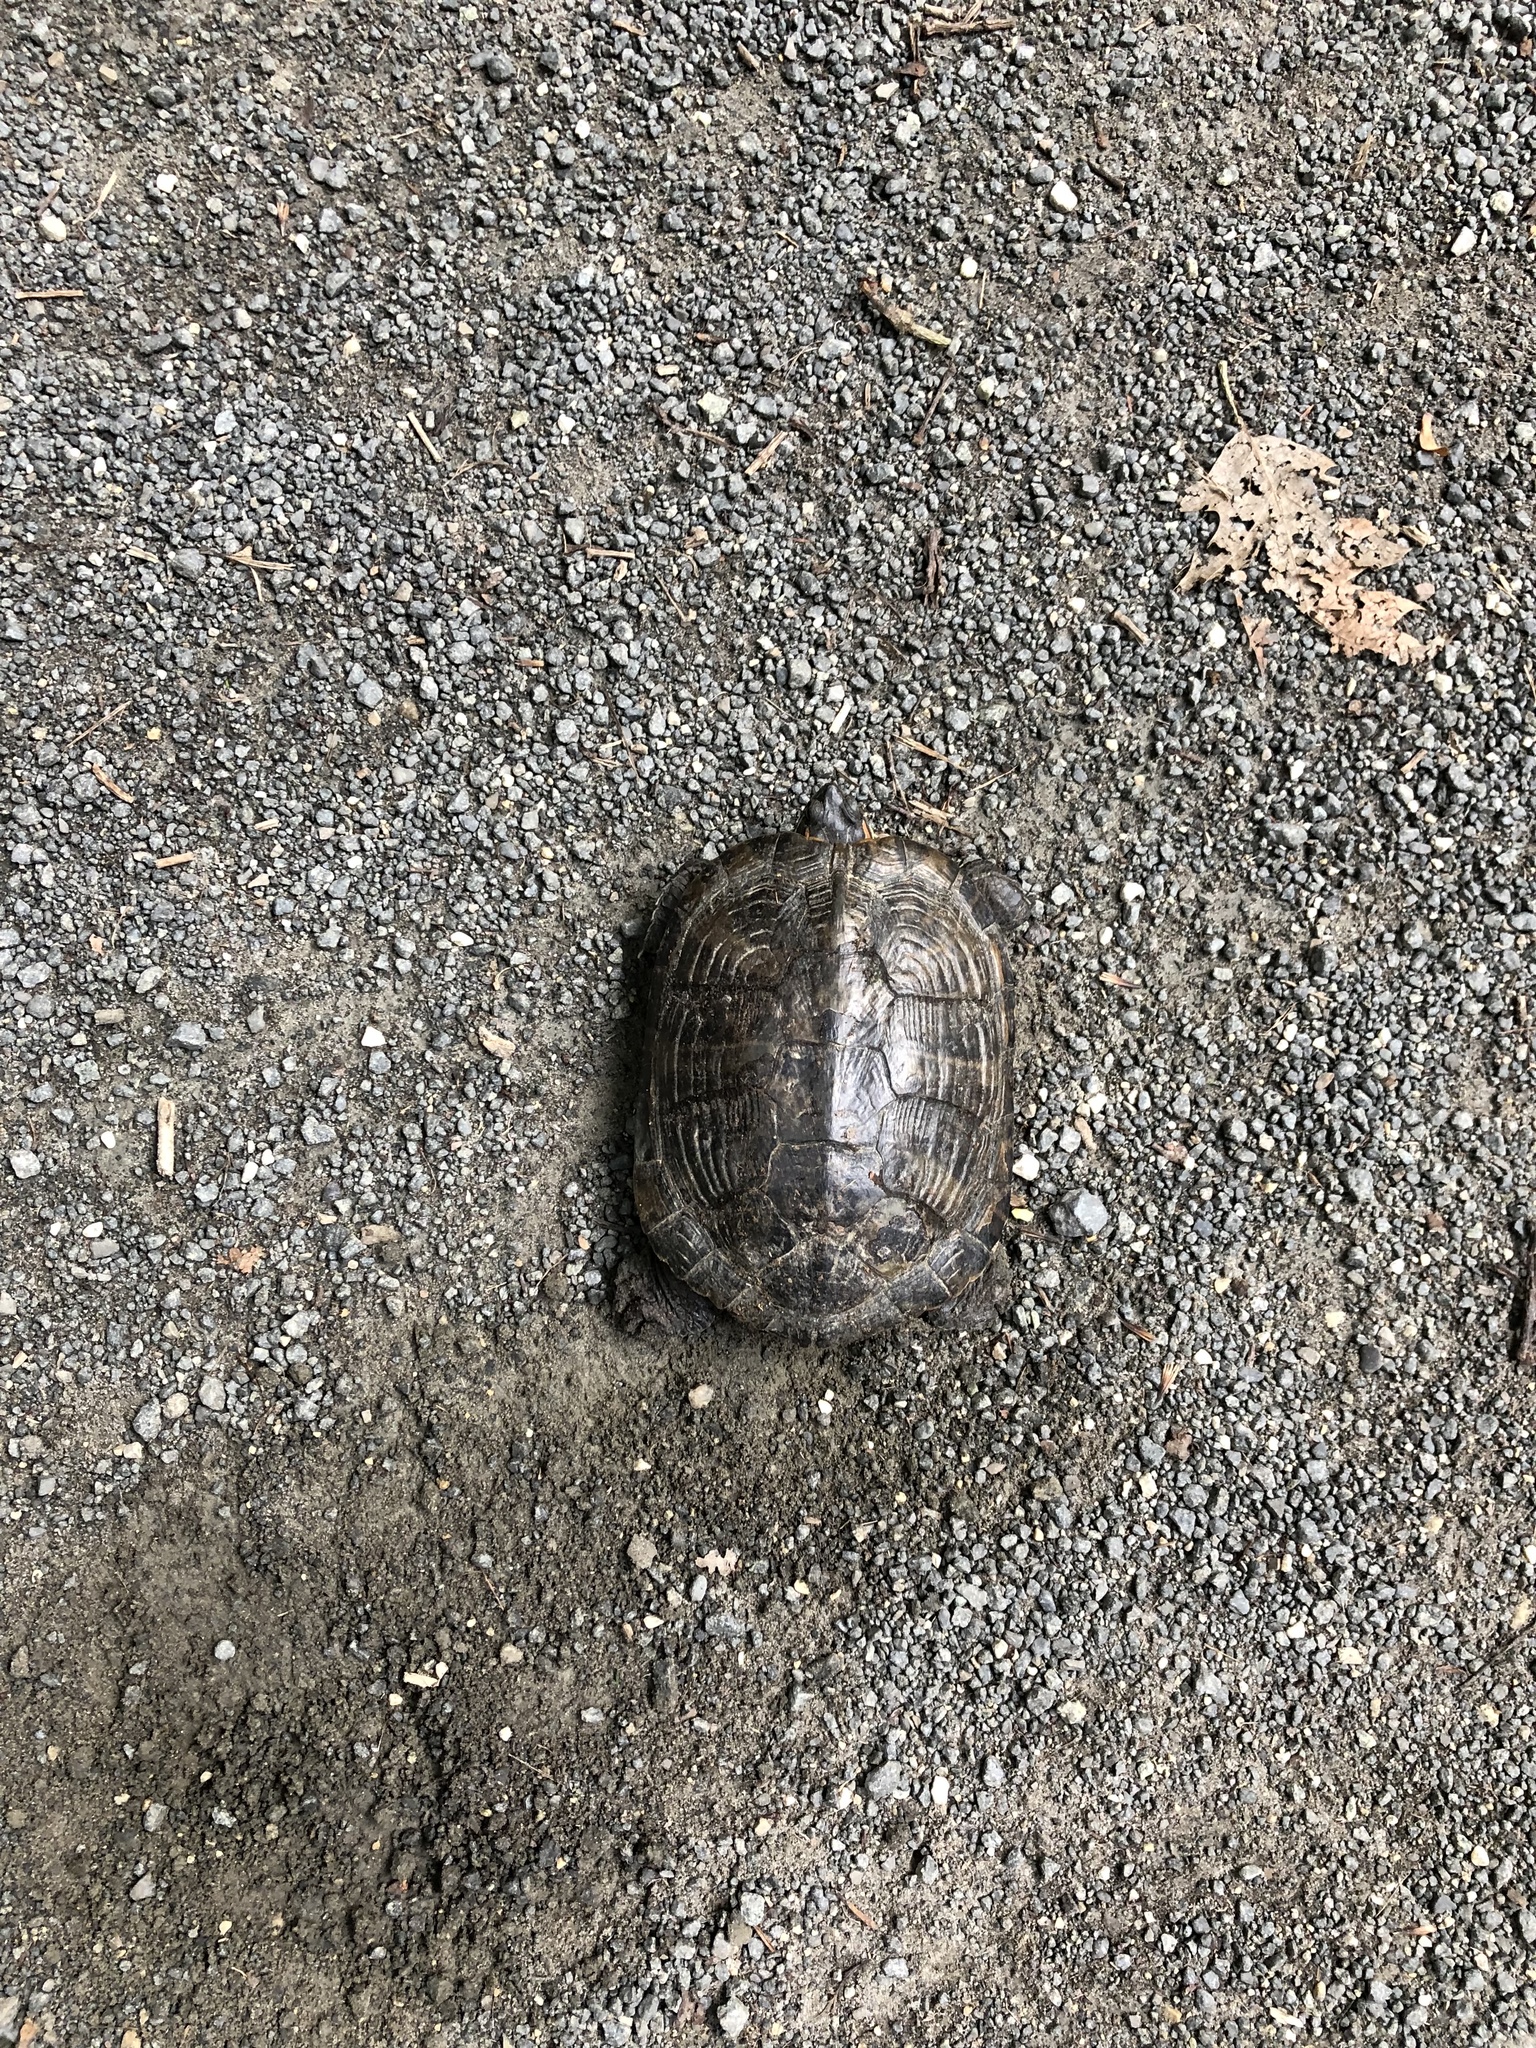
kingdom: Animalia
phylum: Chordata
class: Testudines
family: Emydidae
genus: Trachemys
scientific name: Trachemys scripta
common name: Slider
